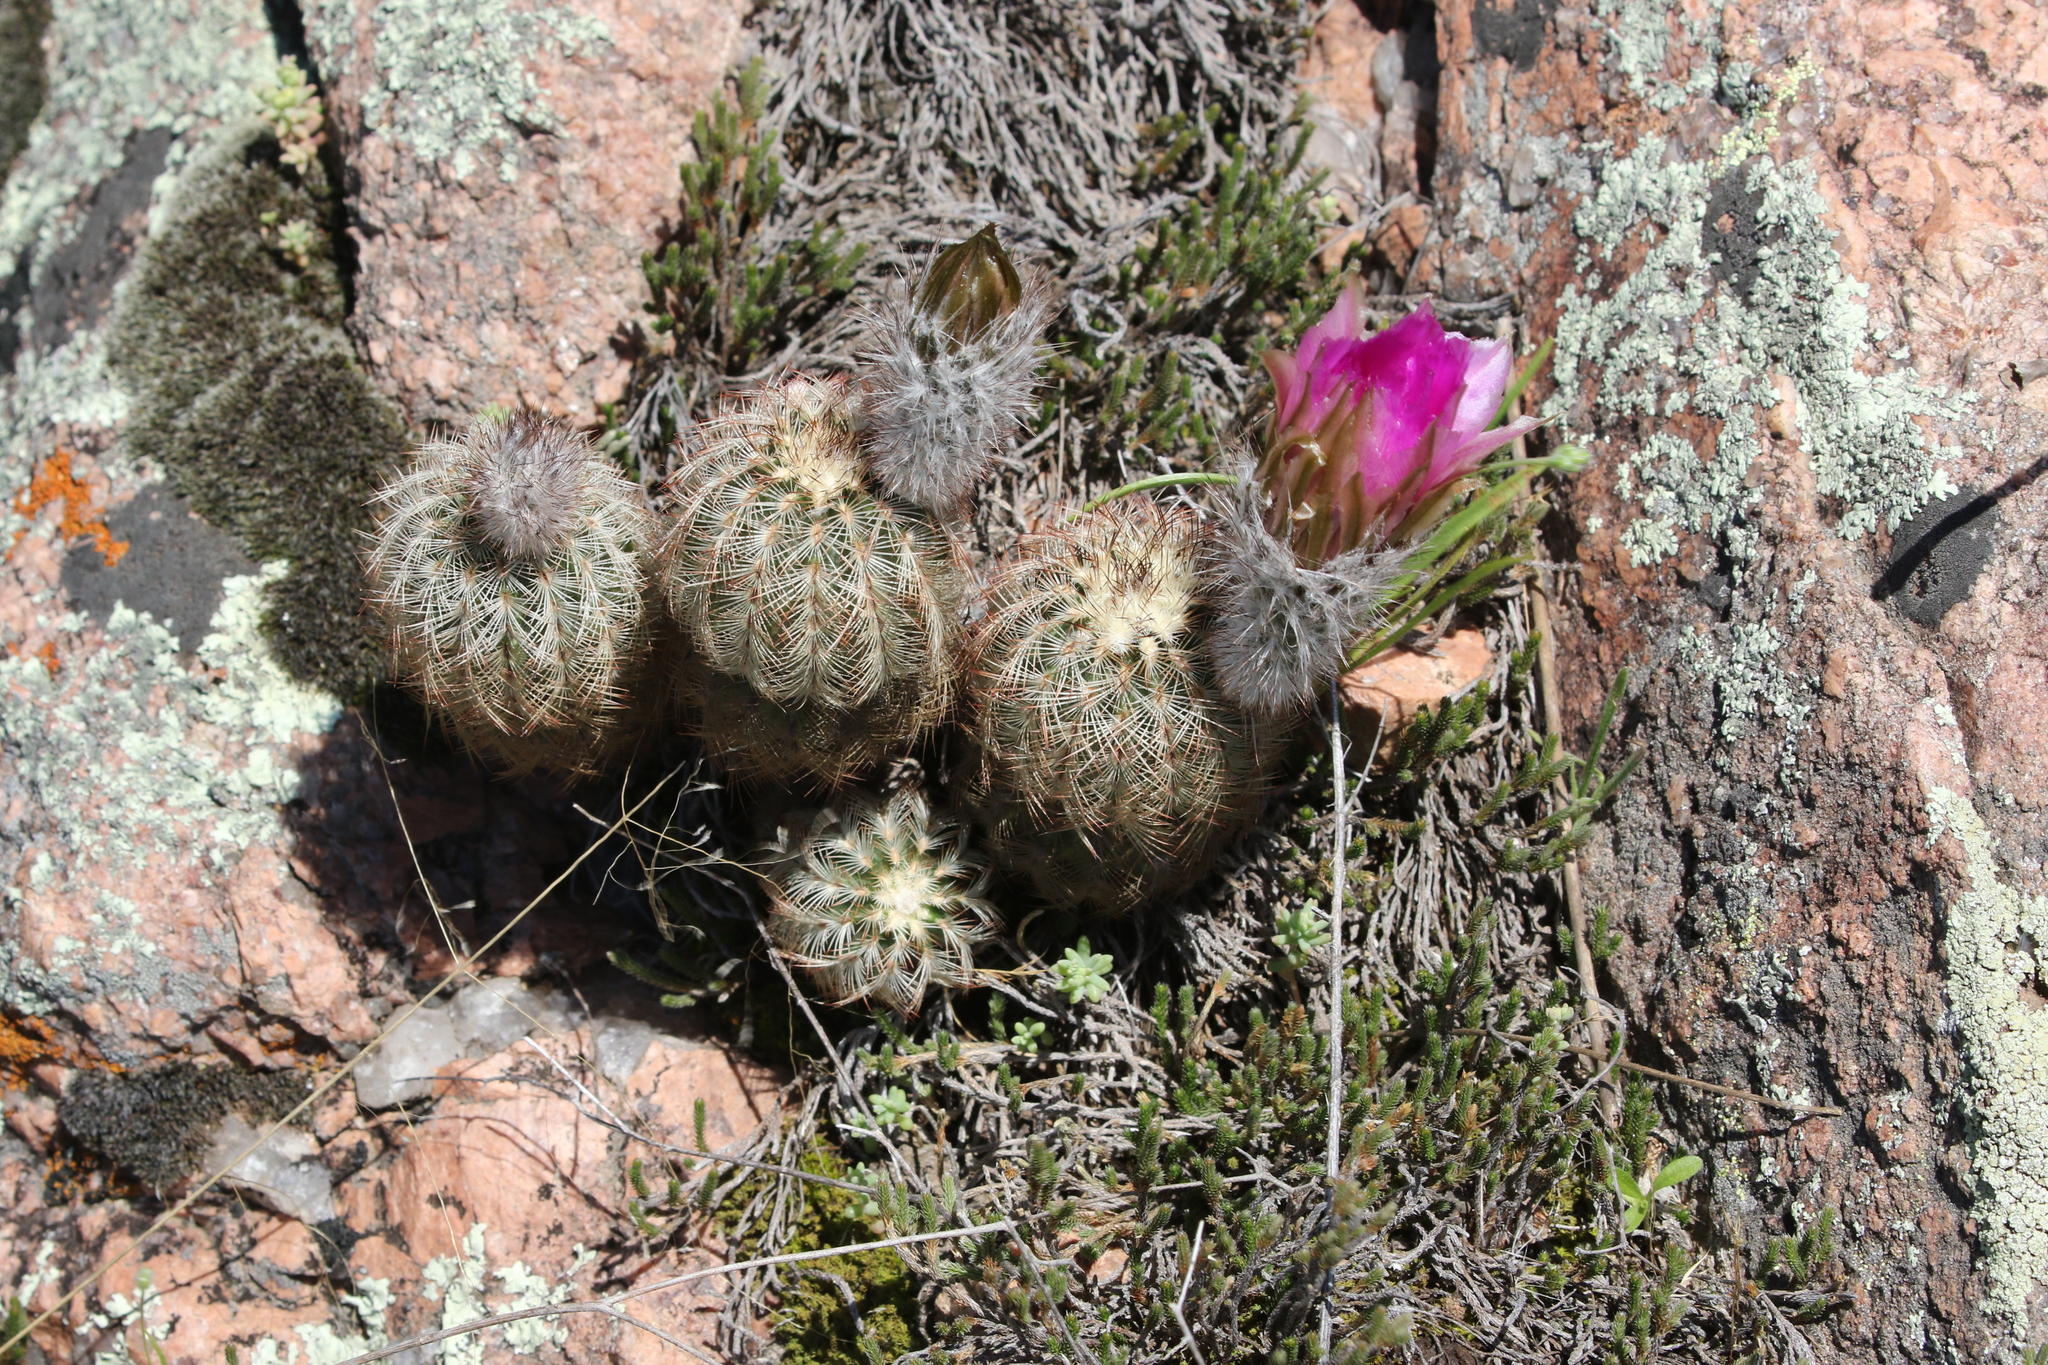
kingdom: Plantae
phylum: Tracheophyta
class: Magnoliopsida
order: Caryophyllales
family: Cactaceae
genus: Echinocereus
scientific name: Echinocereus reichenbachii
